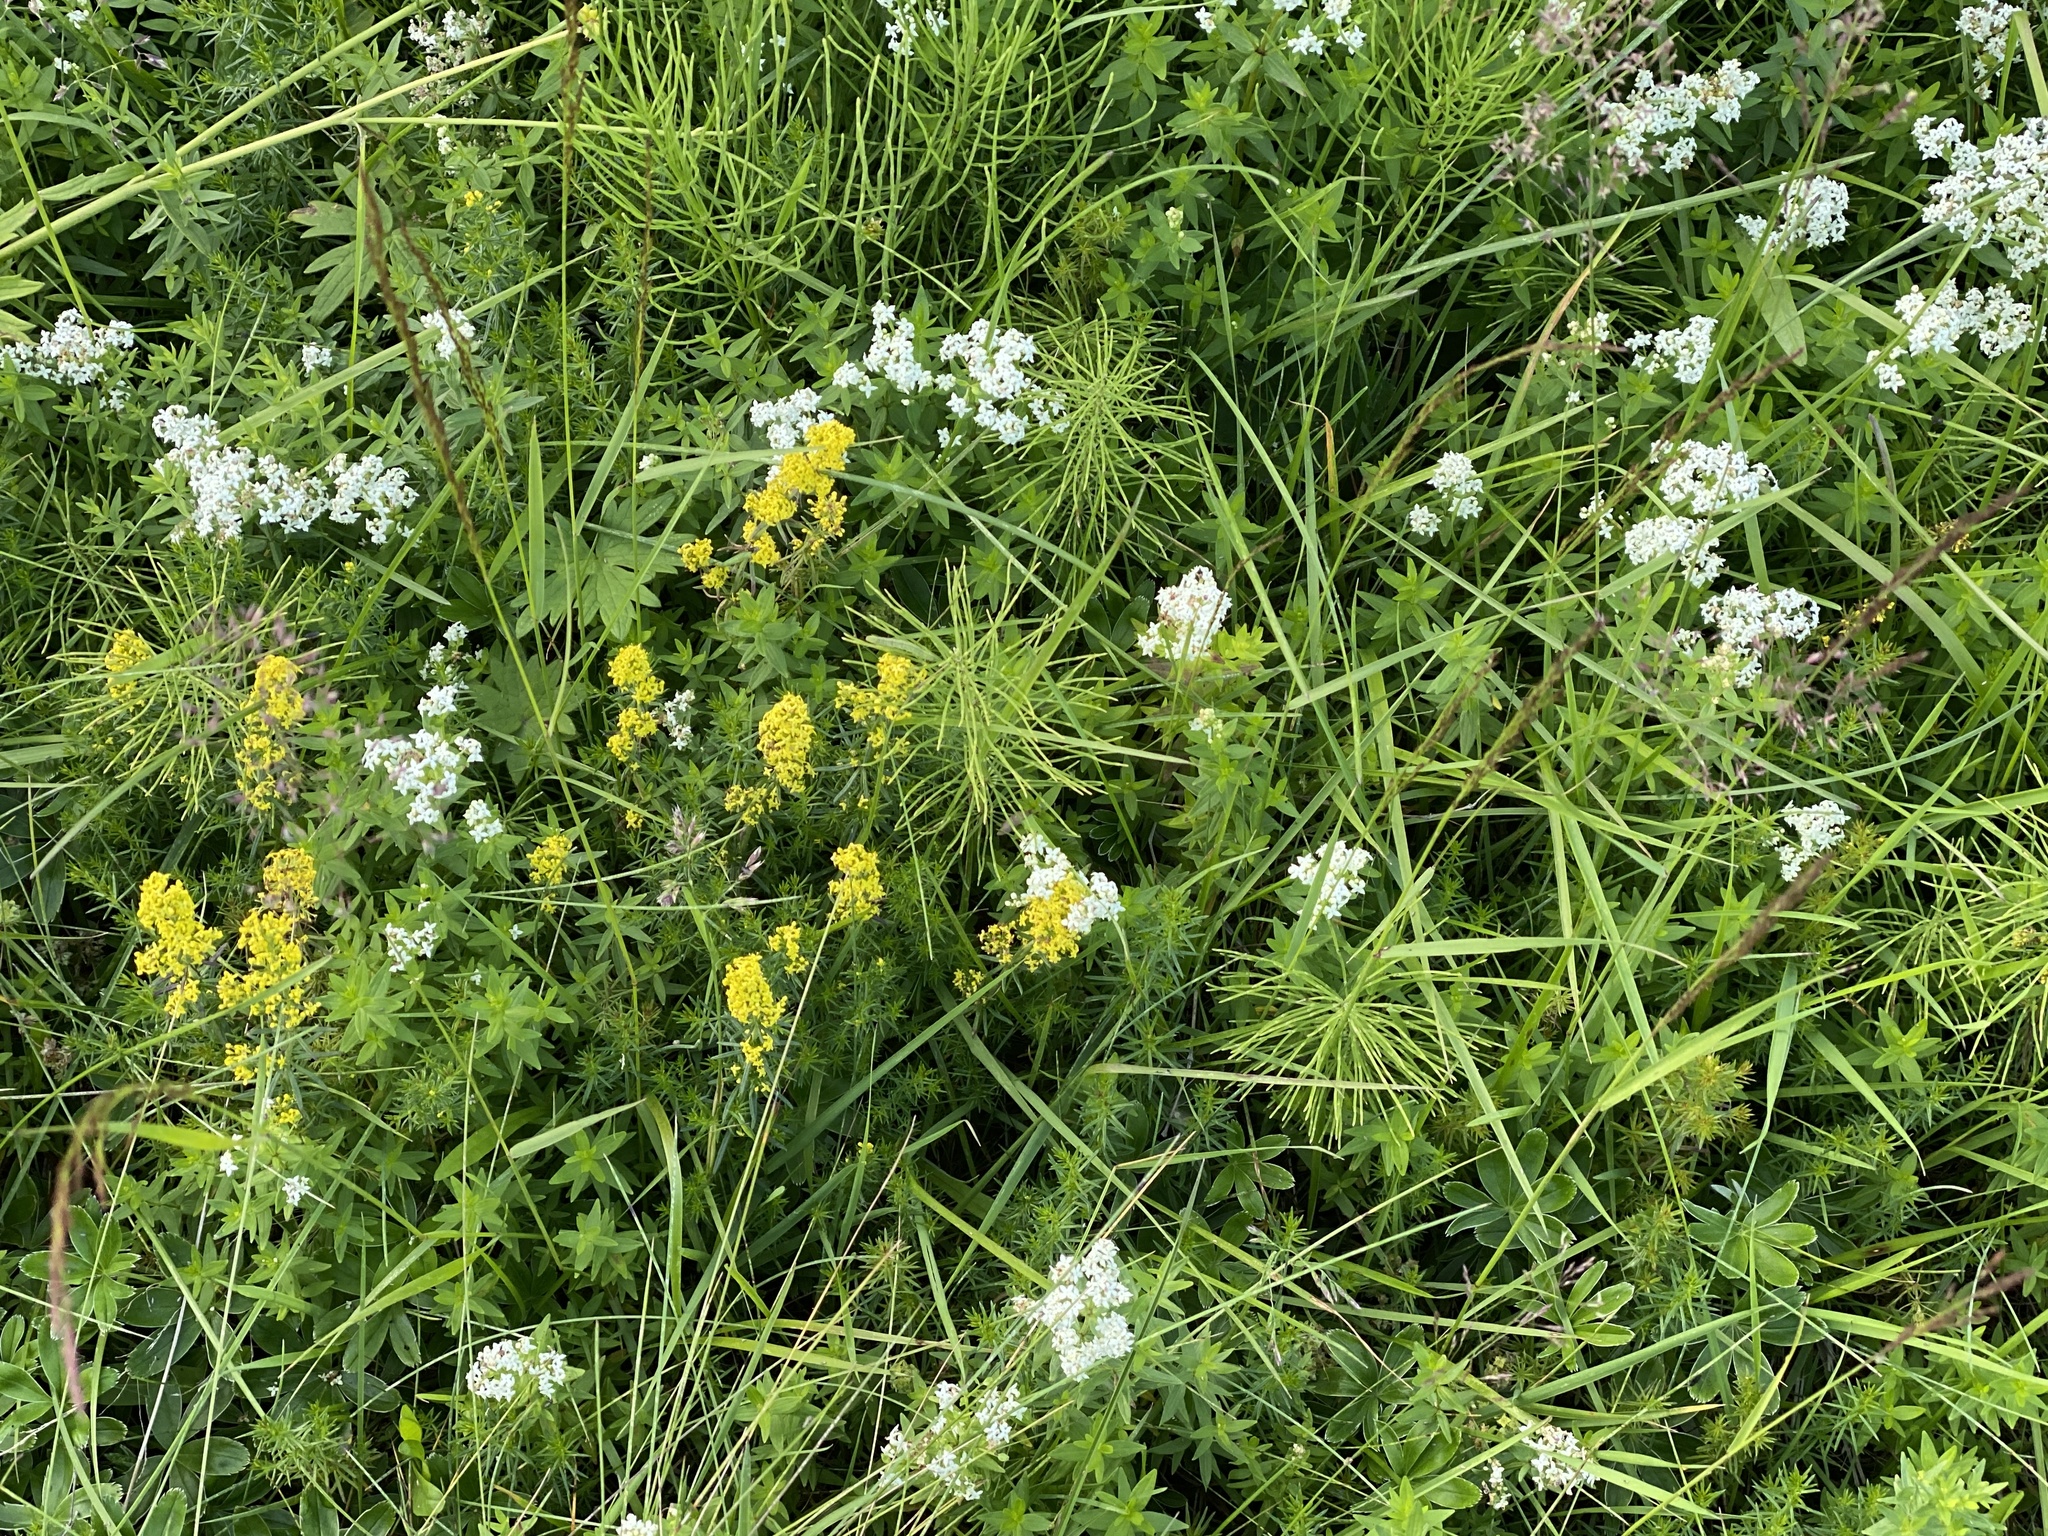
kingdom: Plantae
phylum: Tracheophyta
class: Magnoliopsida
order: Gentianales
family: Rubiaceae
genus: Galium
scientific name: Galium verum
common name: Lady's bedstraw
